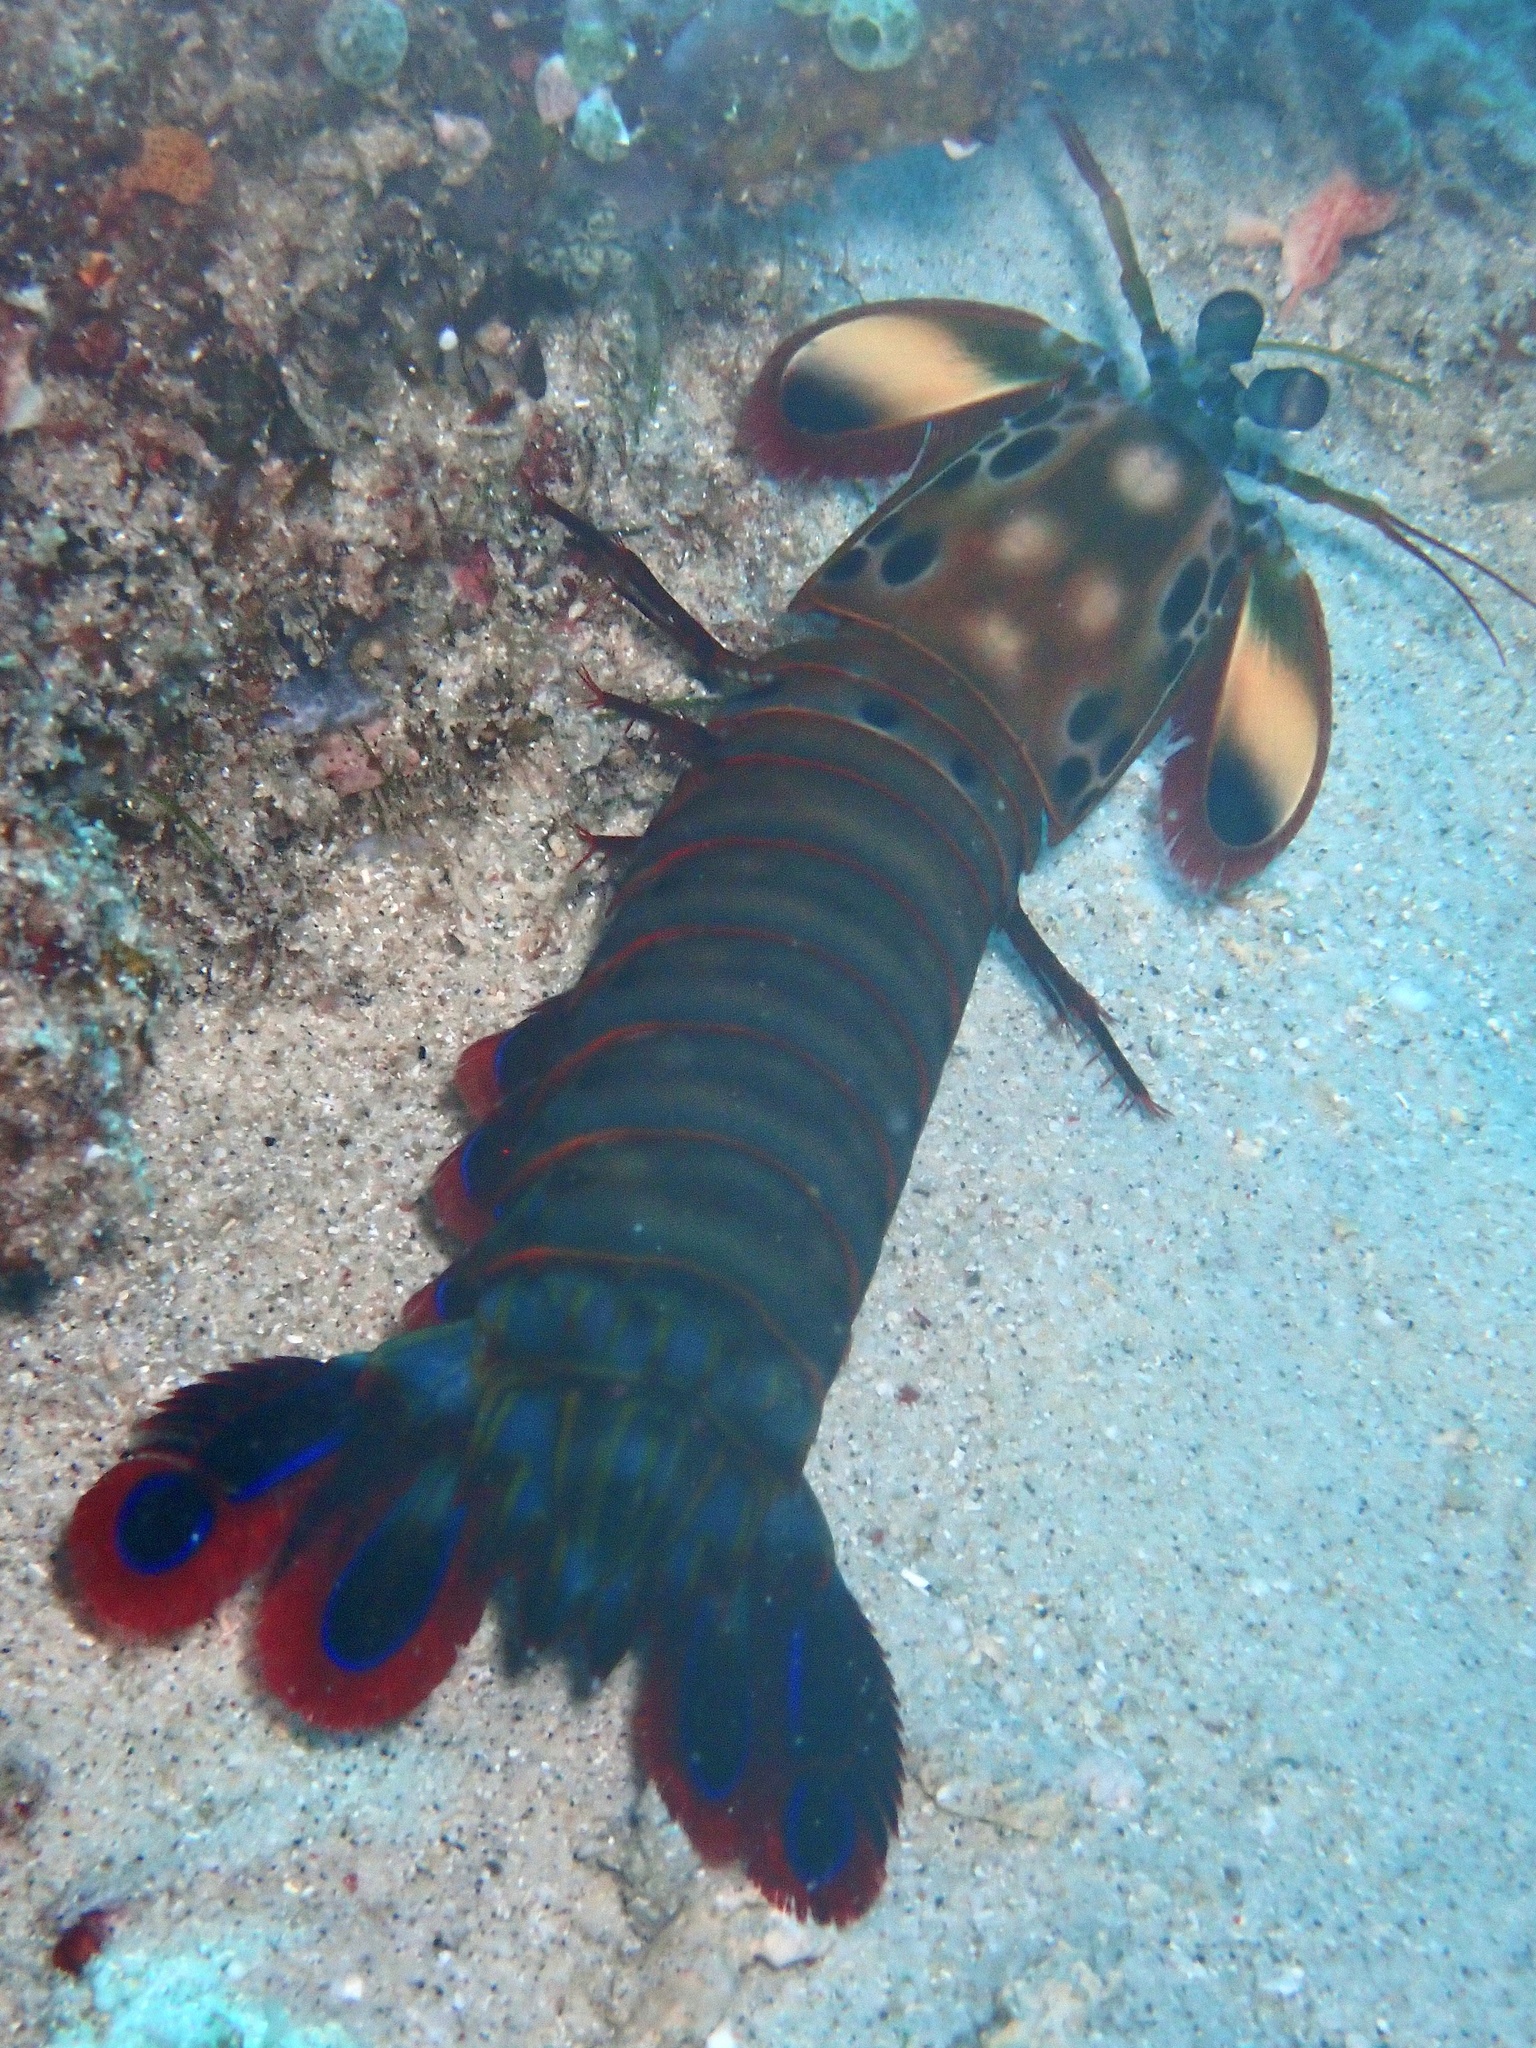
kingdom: Animalia
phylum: Arthropoda
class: Malacostraca
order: Stomatopoda
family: Odontodactylidae
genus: Odontodactylus
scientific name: Odontodactylus scyllarus
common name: Peacock mantis shrimp
